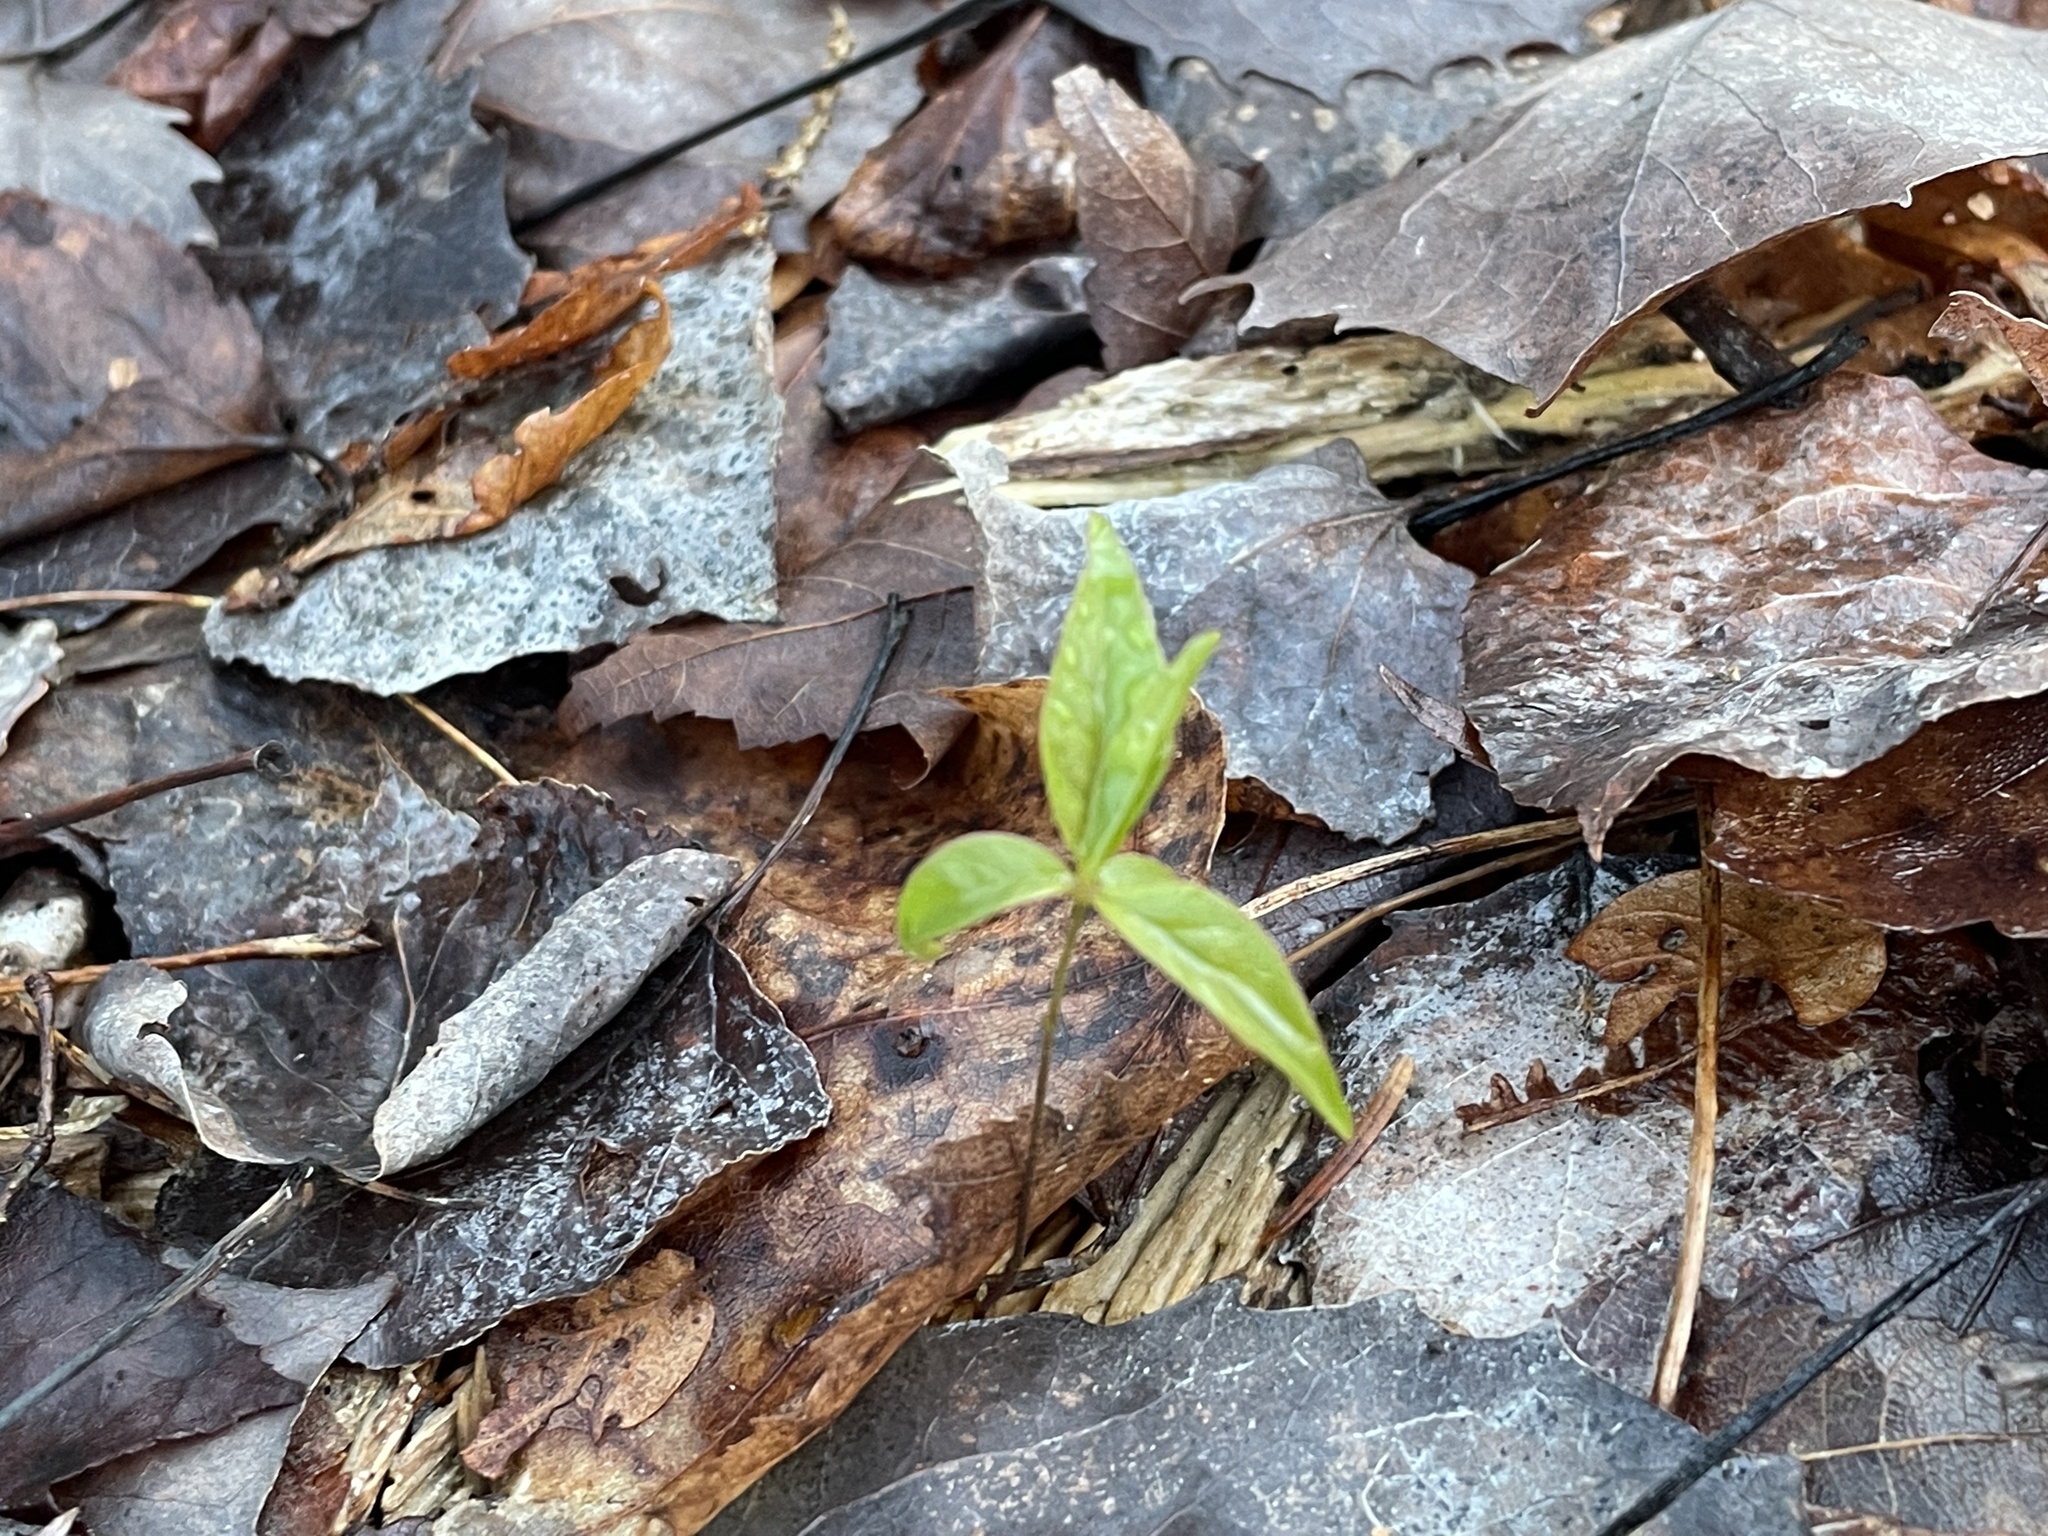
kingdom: Plantae
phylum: Tracheophyta
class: Magnoliopsida
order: Ericales
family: Primulaceae
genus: Lysimachia
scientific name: Lysimachia borealis
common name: American starflower
